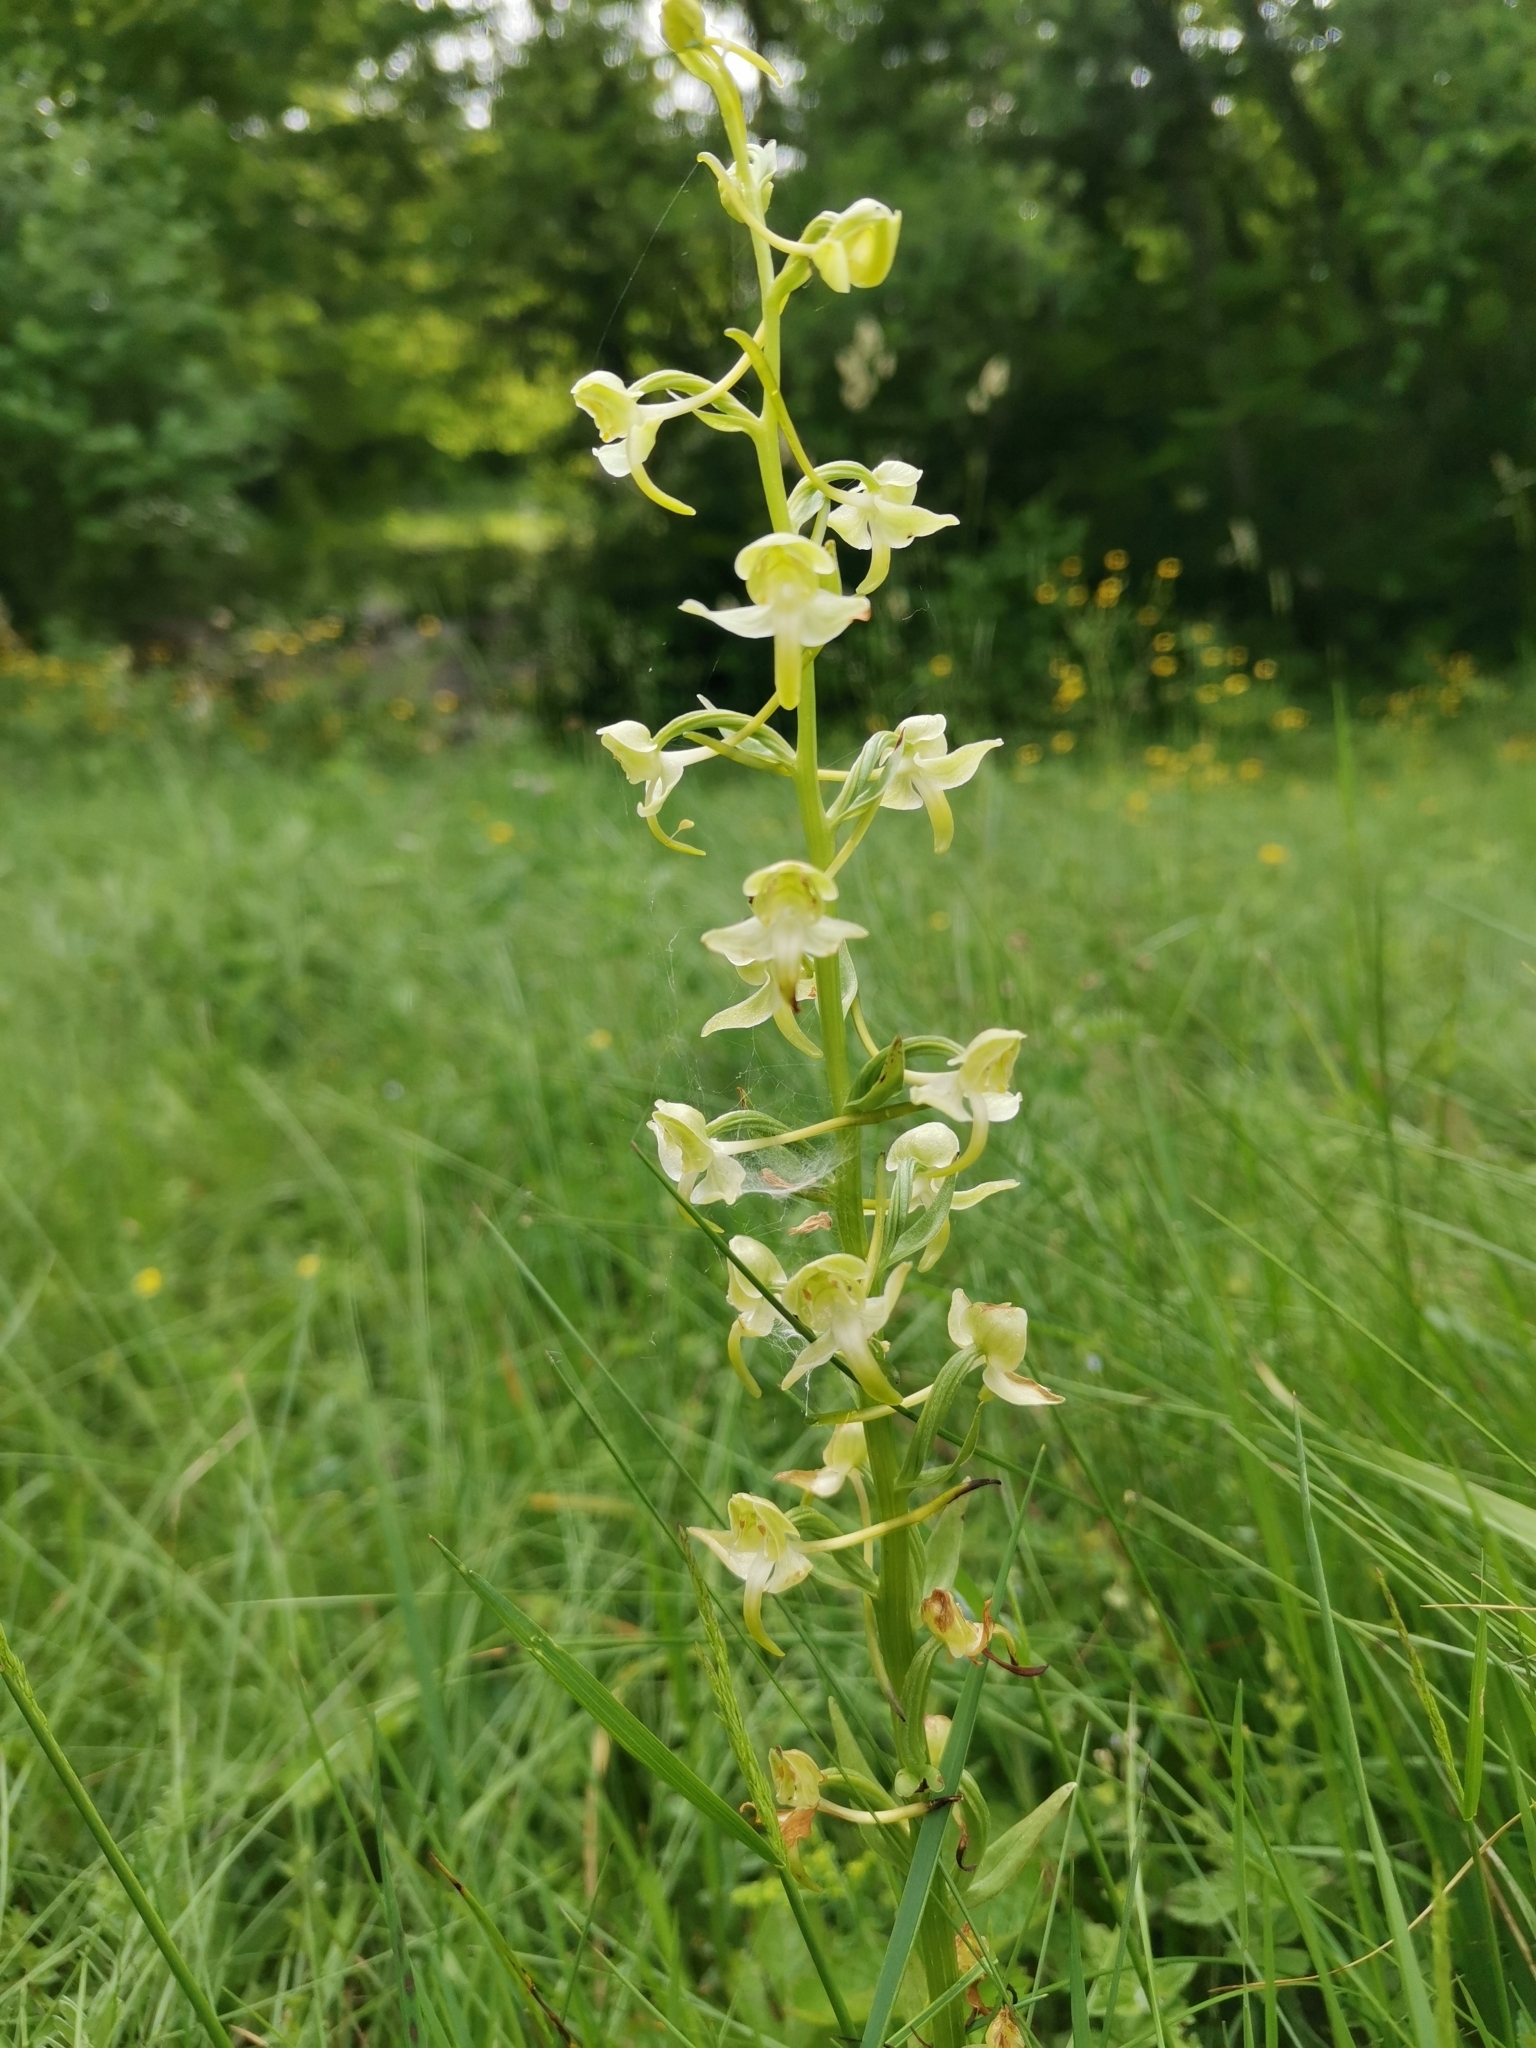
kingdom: Plantae
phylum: Tracheophyta
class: Liliopsida
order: Asparagales
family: Orchidaceae
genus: Platanthera
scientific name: Platanthera chlorantha
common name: Greater butterfly-orchid
